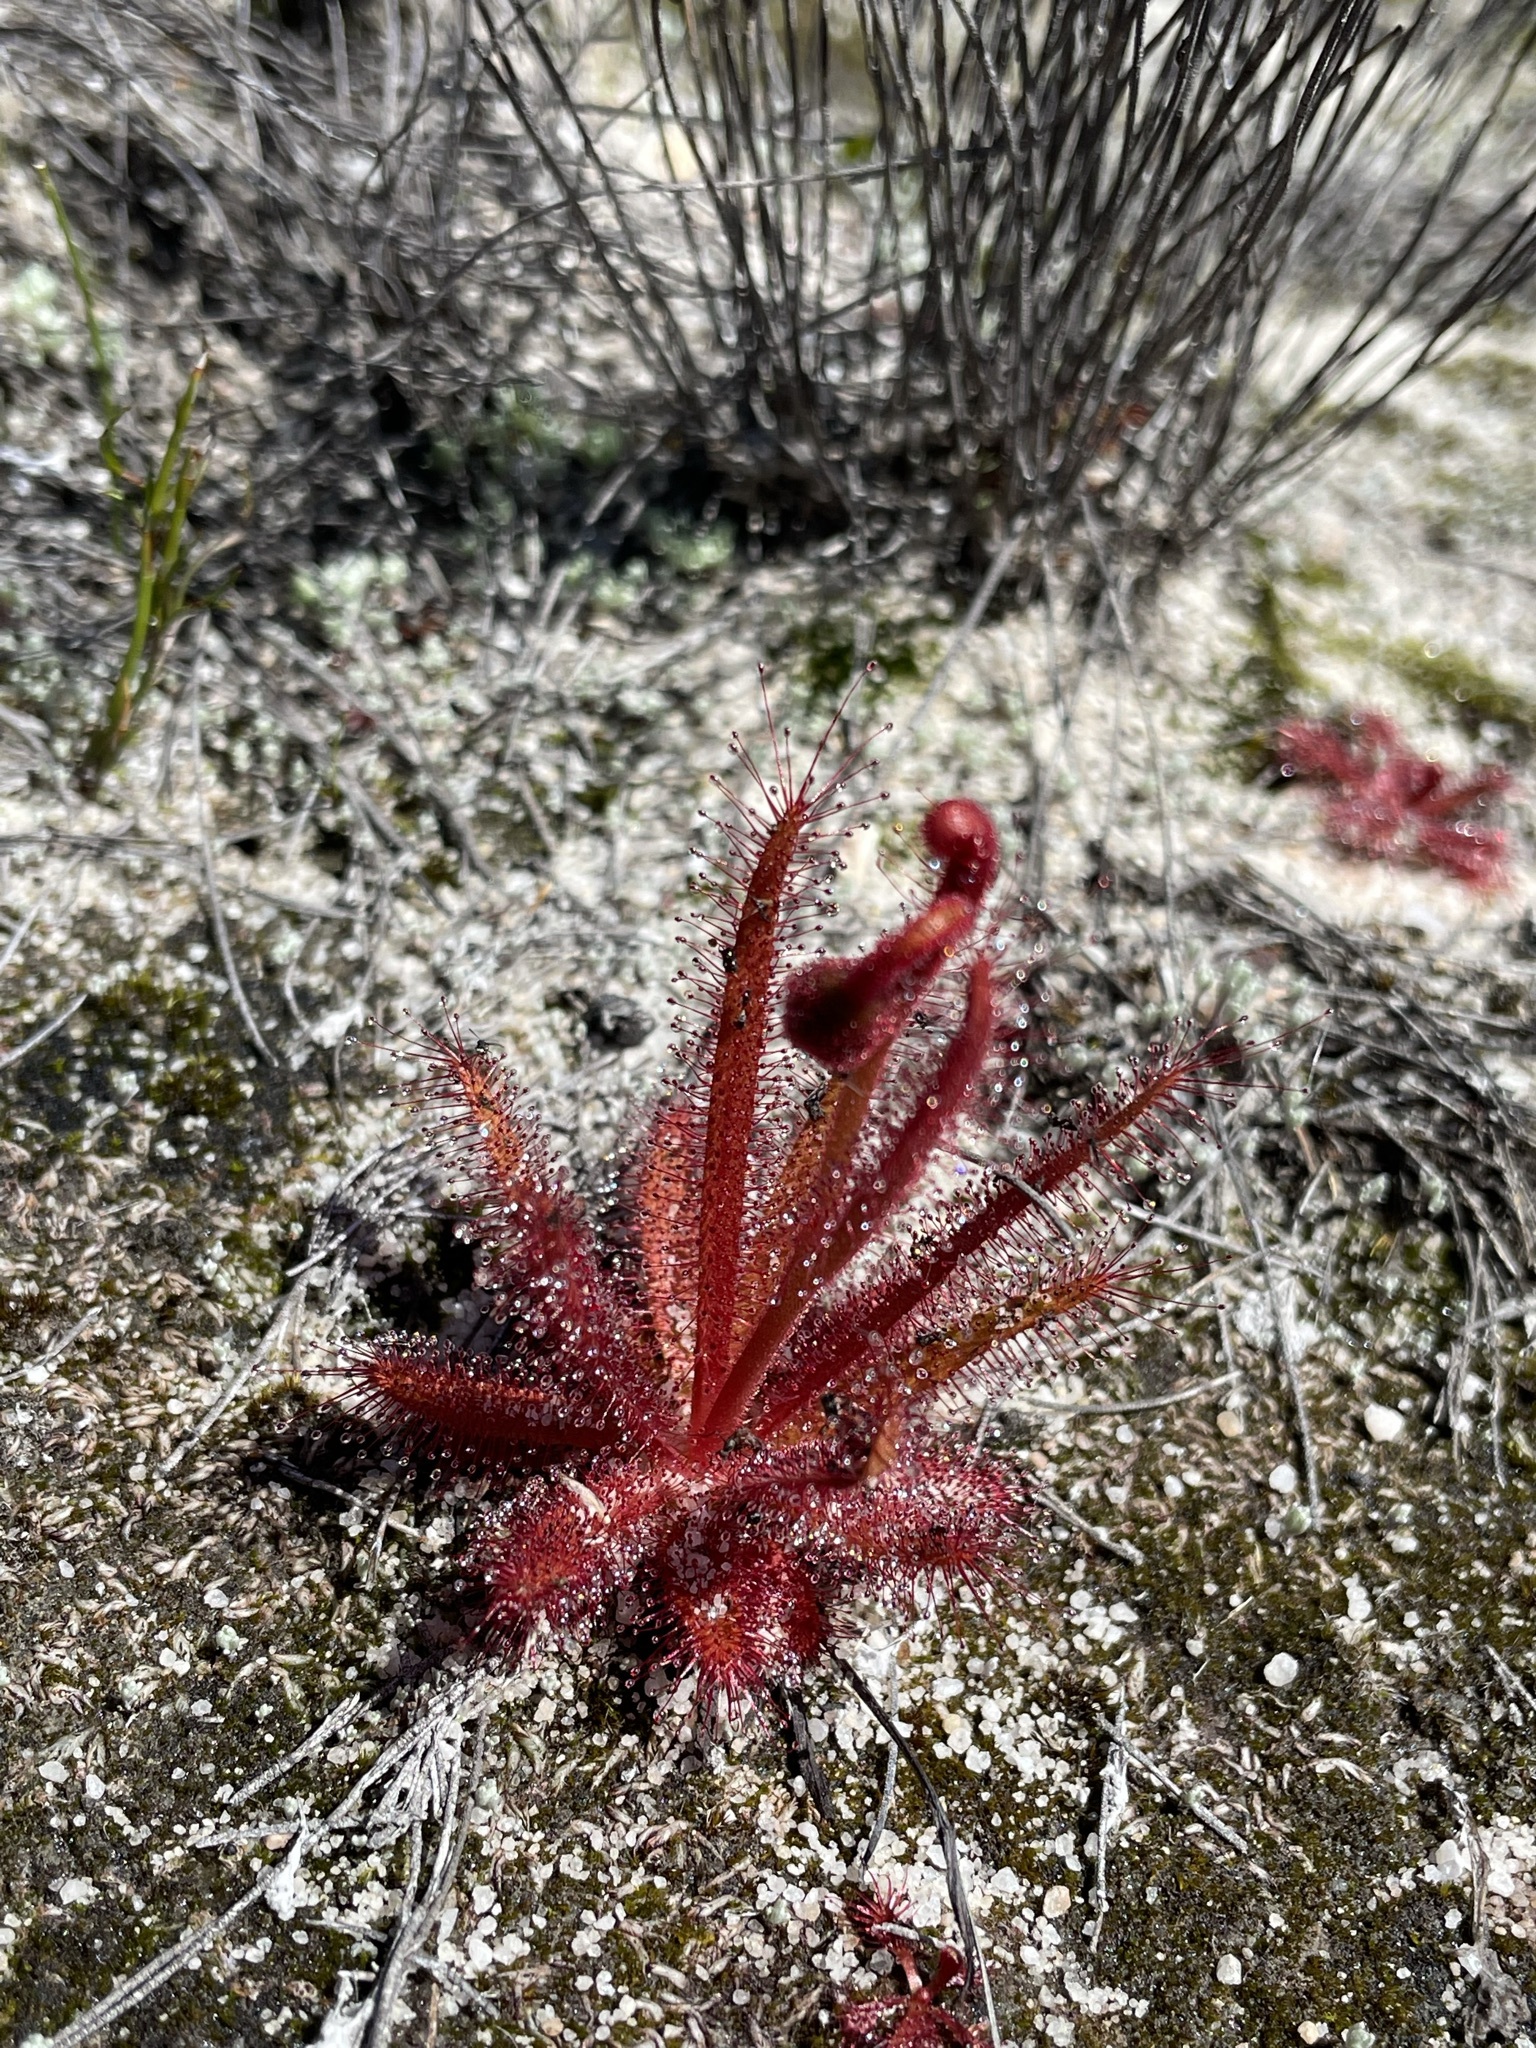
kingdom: Plantae
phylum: Tracheophyta
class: Magnoliopsida
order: Caryophyllales
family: Droseraceae
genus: Drosera
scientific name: Drosera cistiflora
